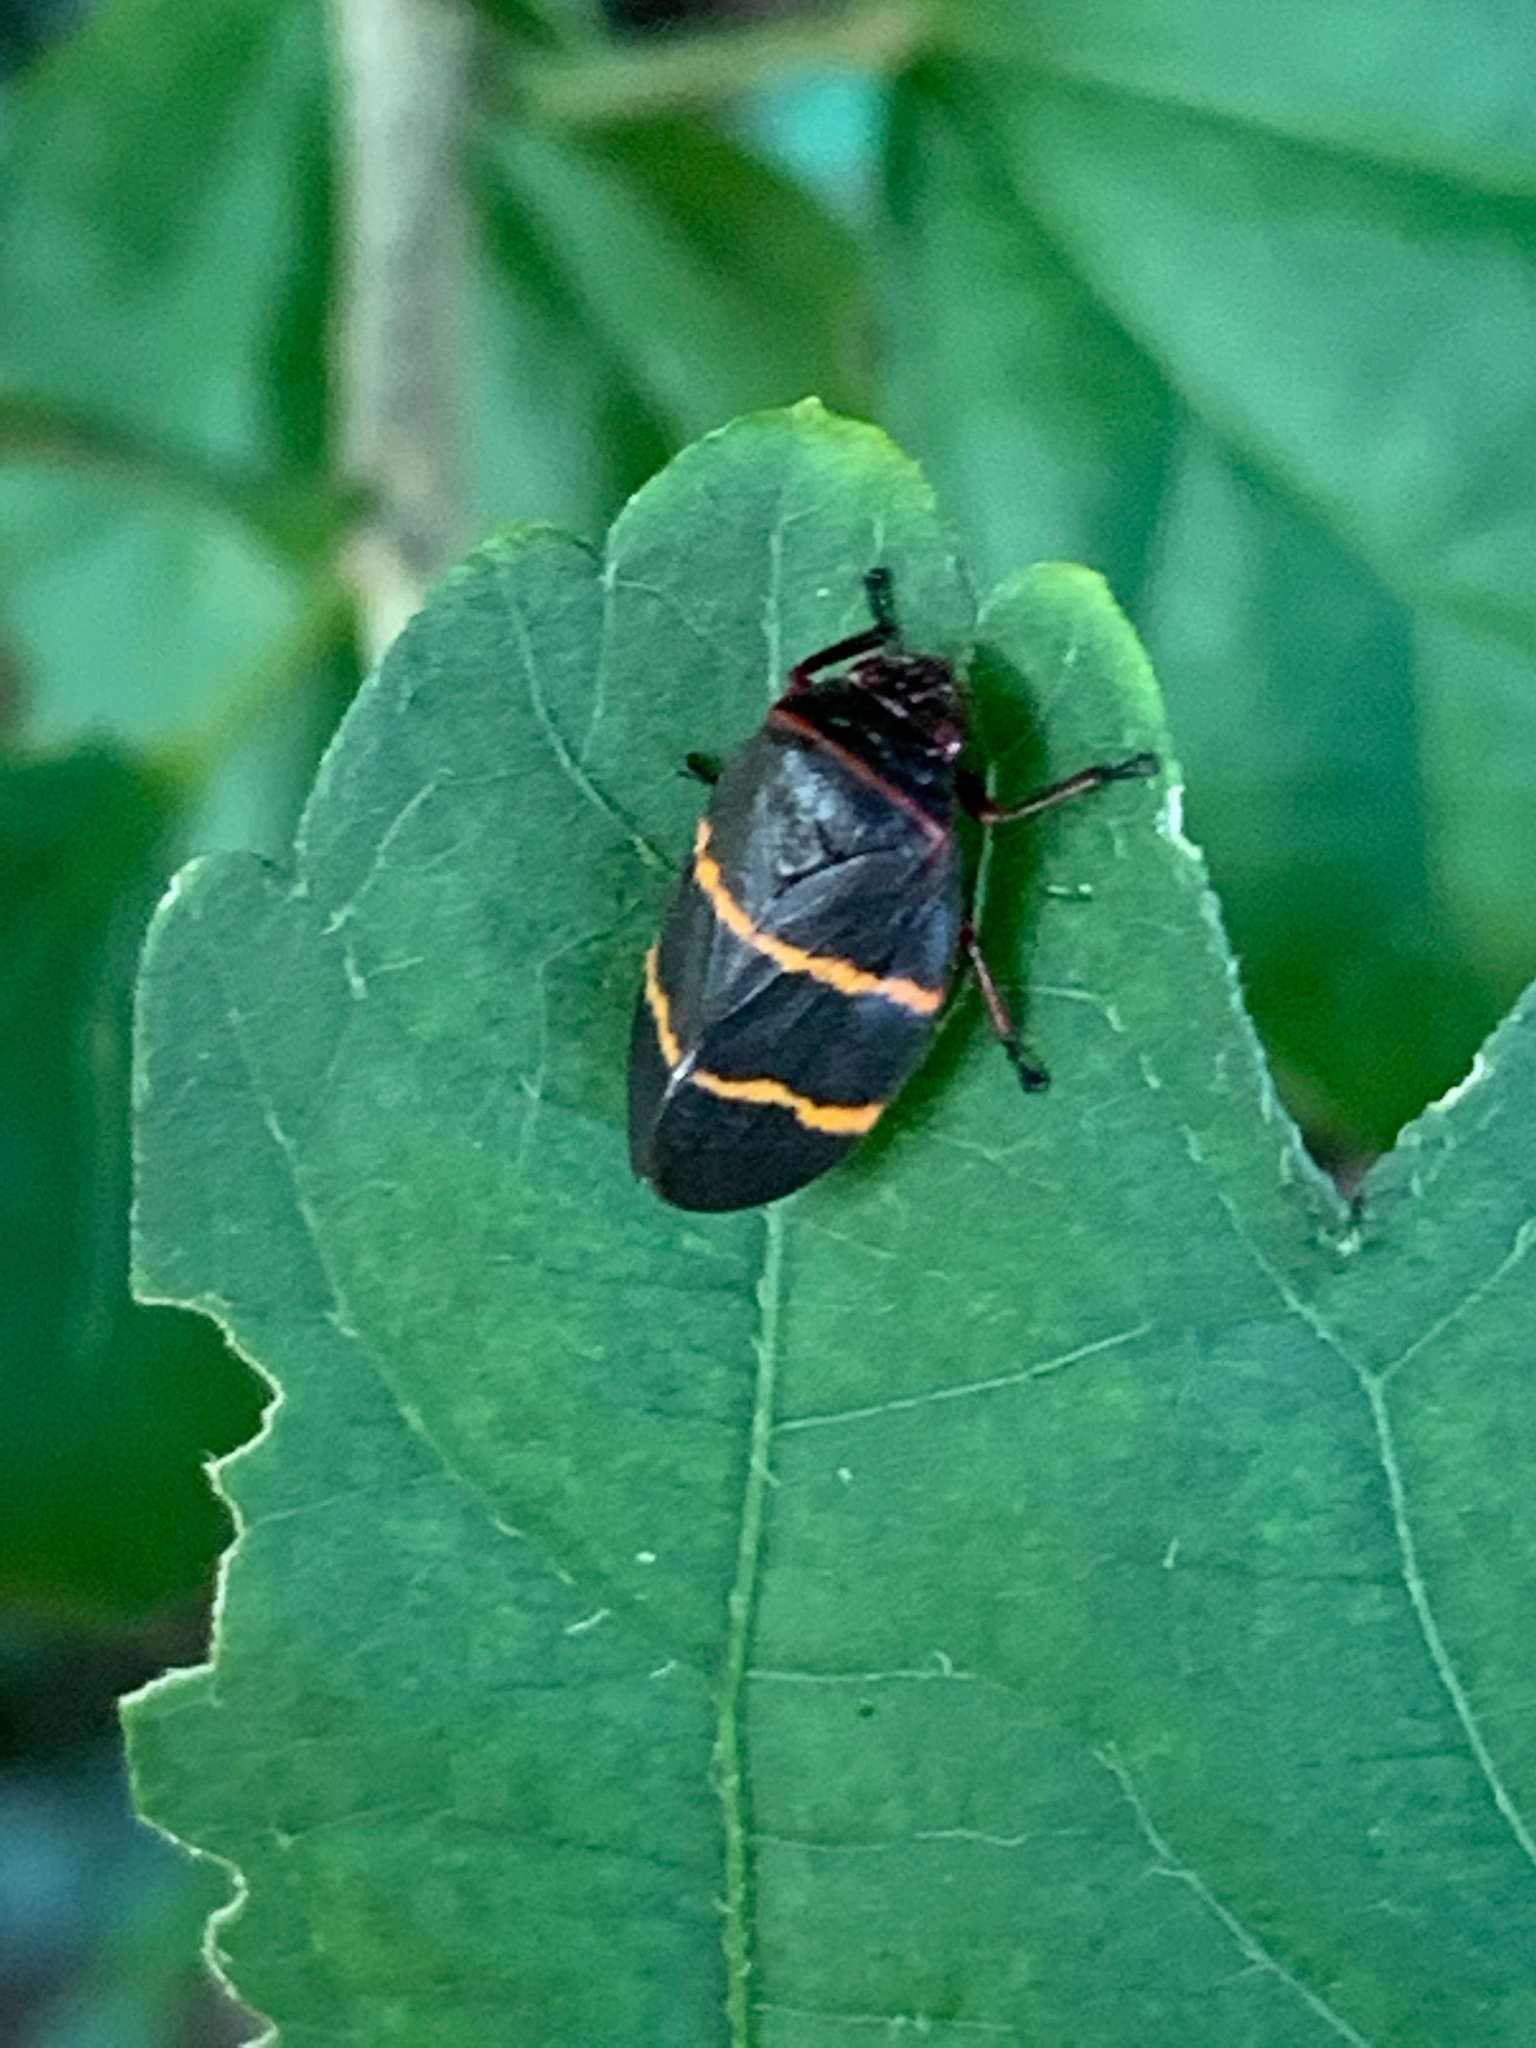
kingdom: Animalia
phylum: Arthropoda
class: Insecta
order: Hemiptera
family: Cercopidae
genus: Prosapia
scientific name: Prosapia bicincta
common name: Twolined spittlebug
